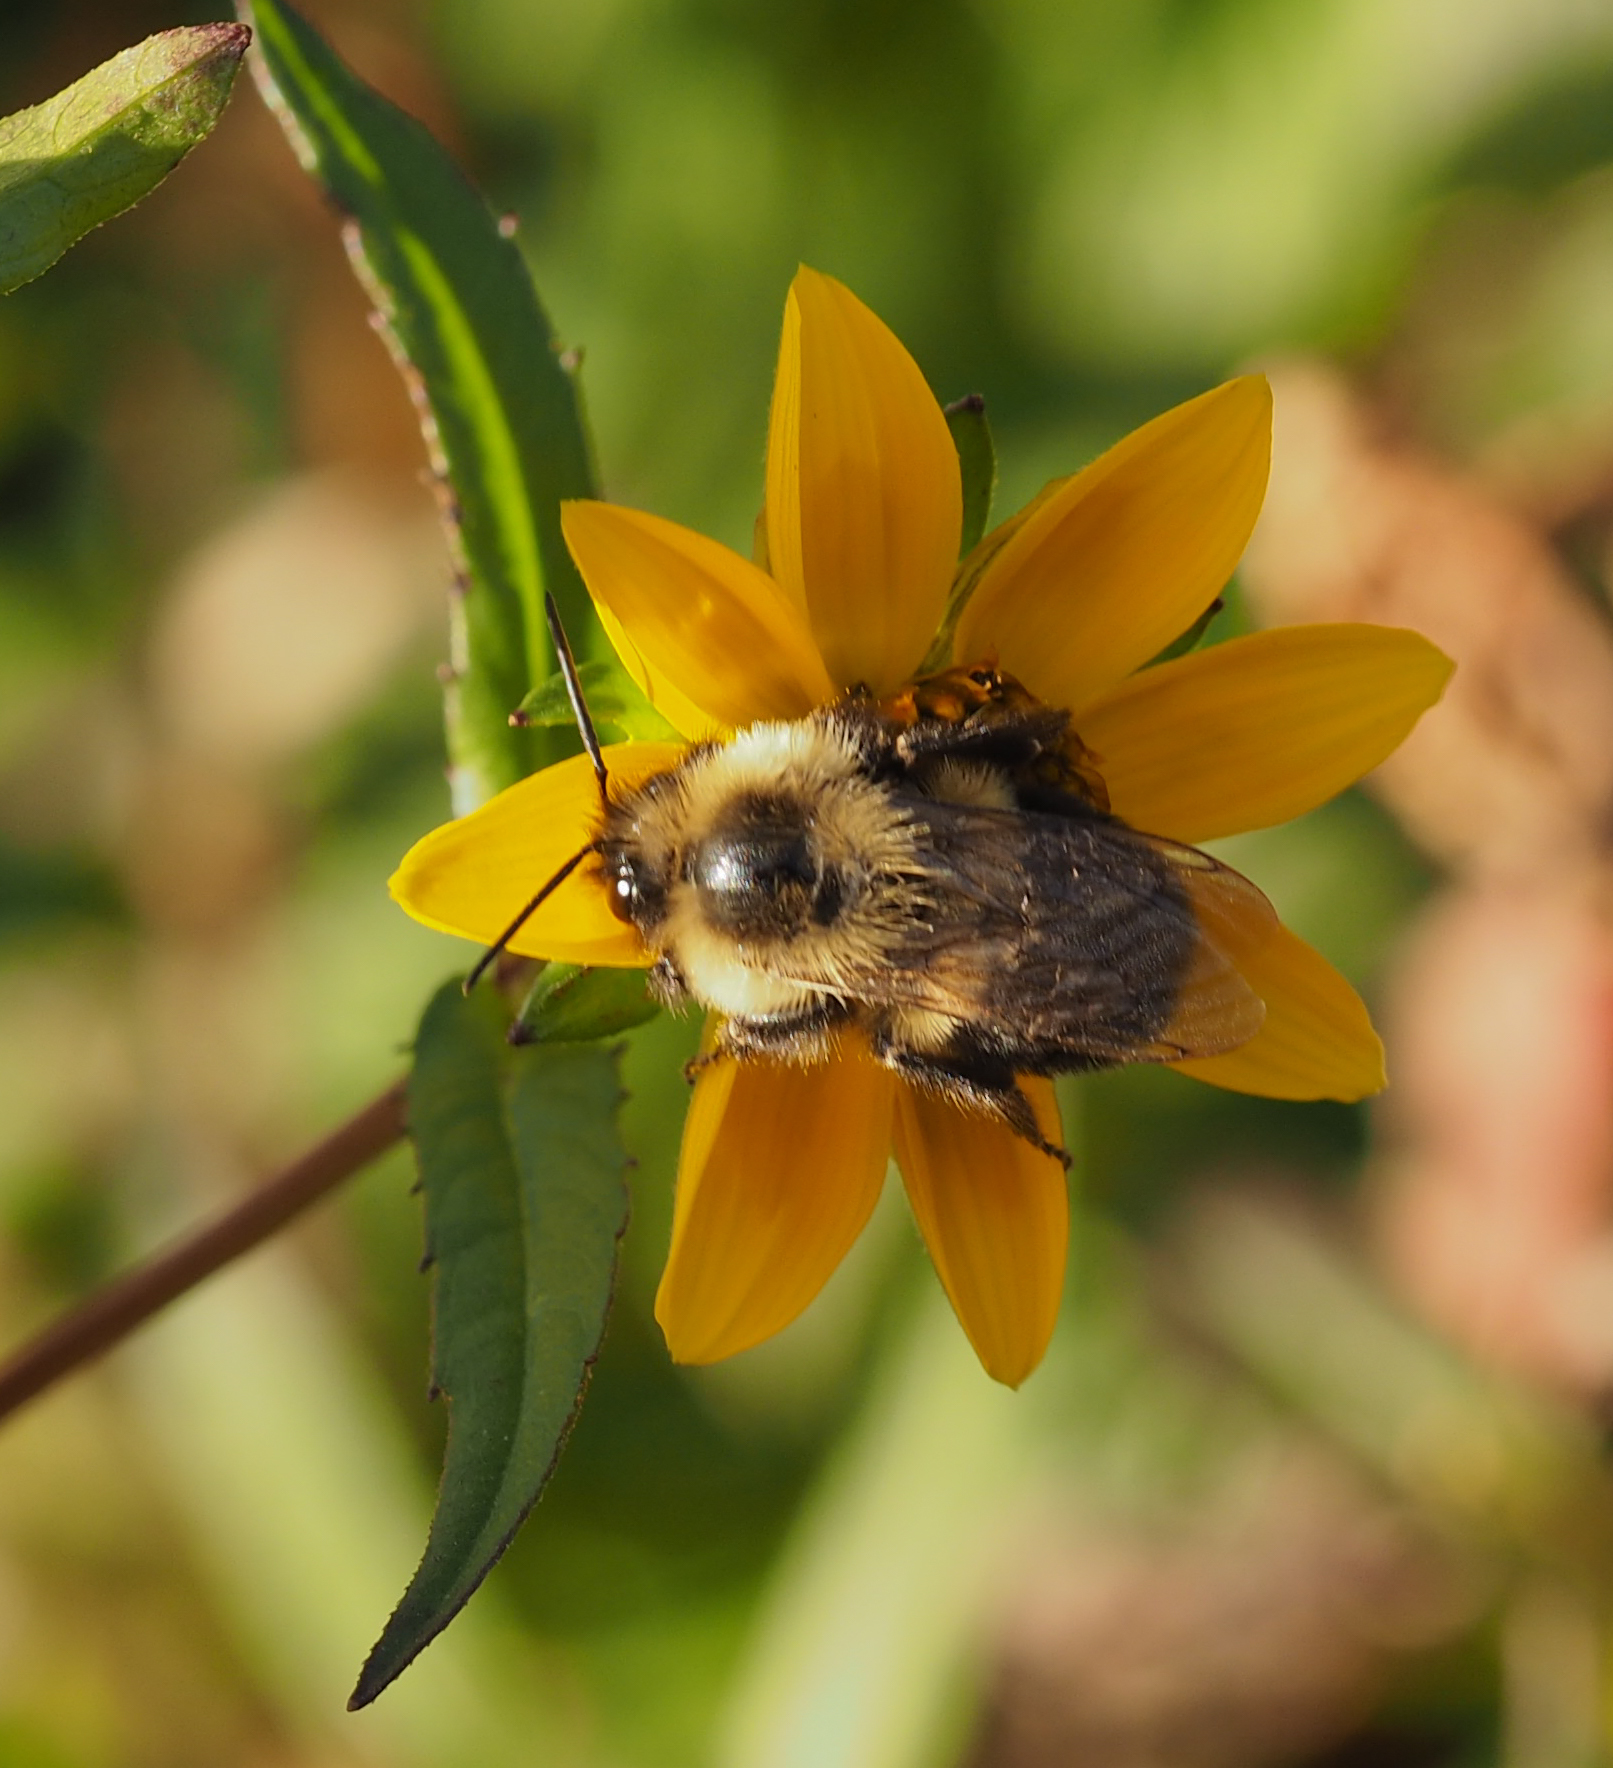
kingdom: Animalia
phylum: Arthropoda
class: Insecta
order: Hymenoptera
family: Apidae
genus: Bombus
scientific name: Bombus impatiens
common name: Common eastern bumble bee
